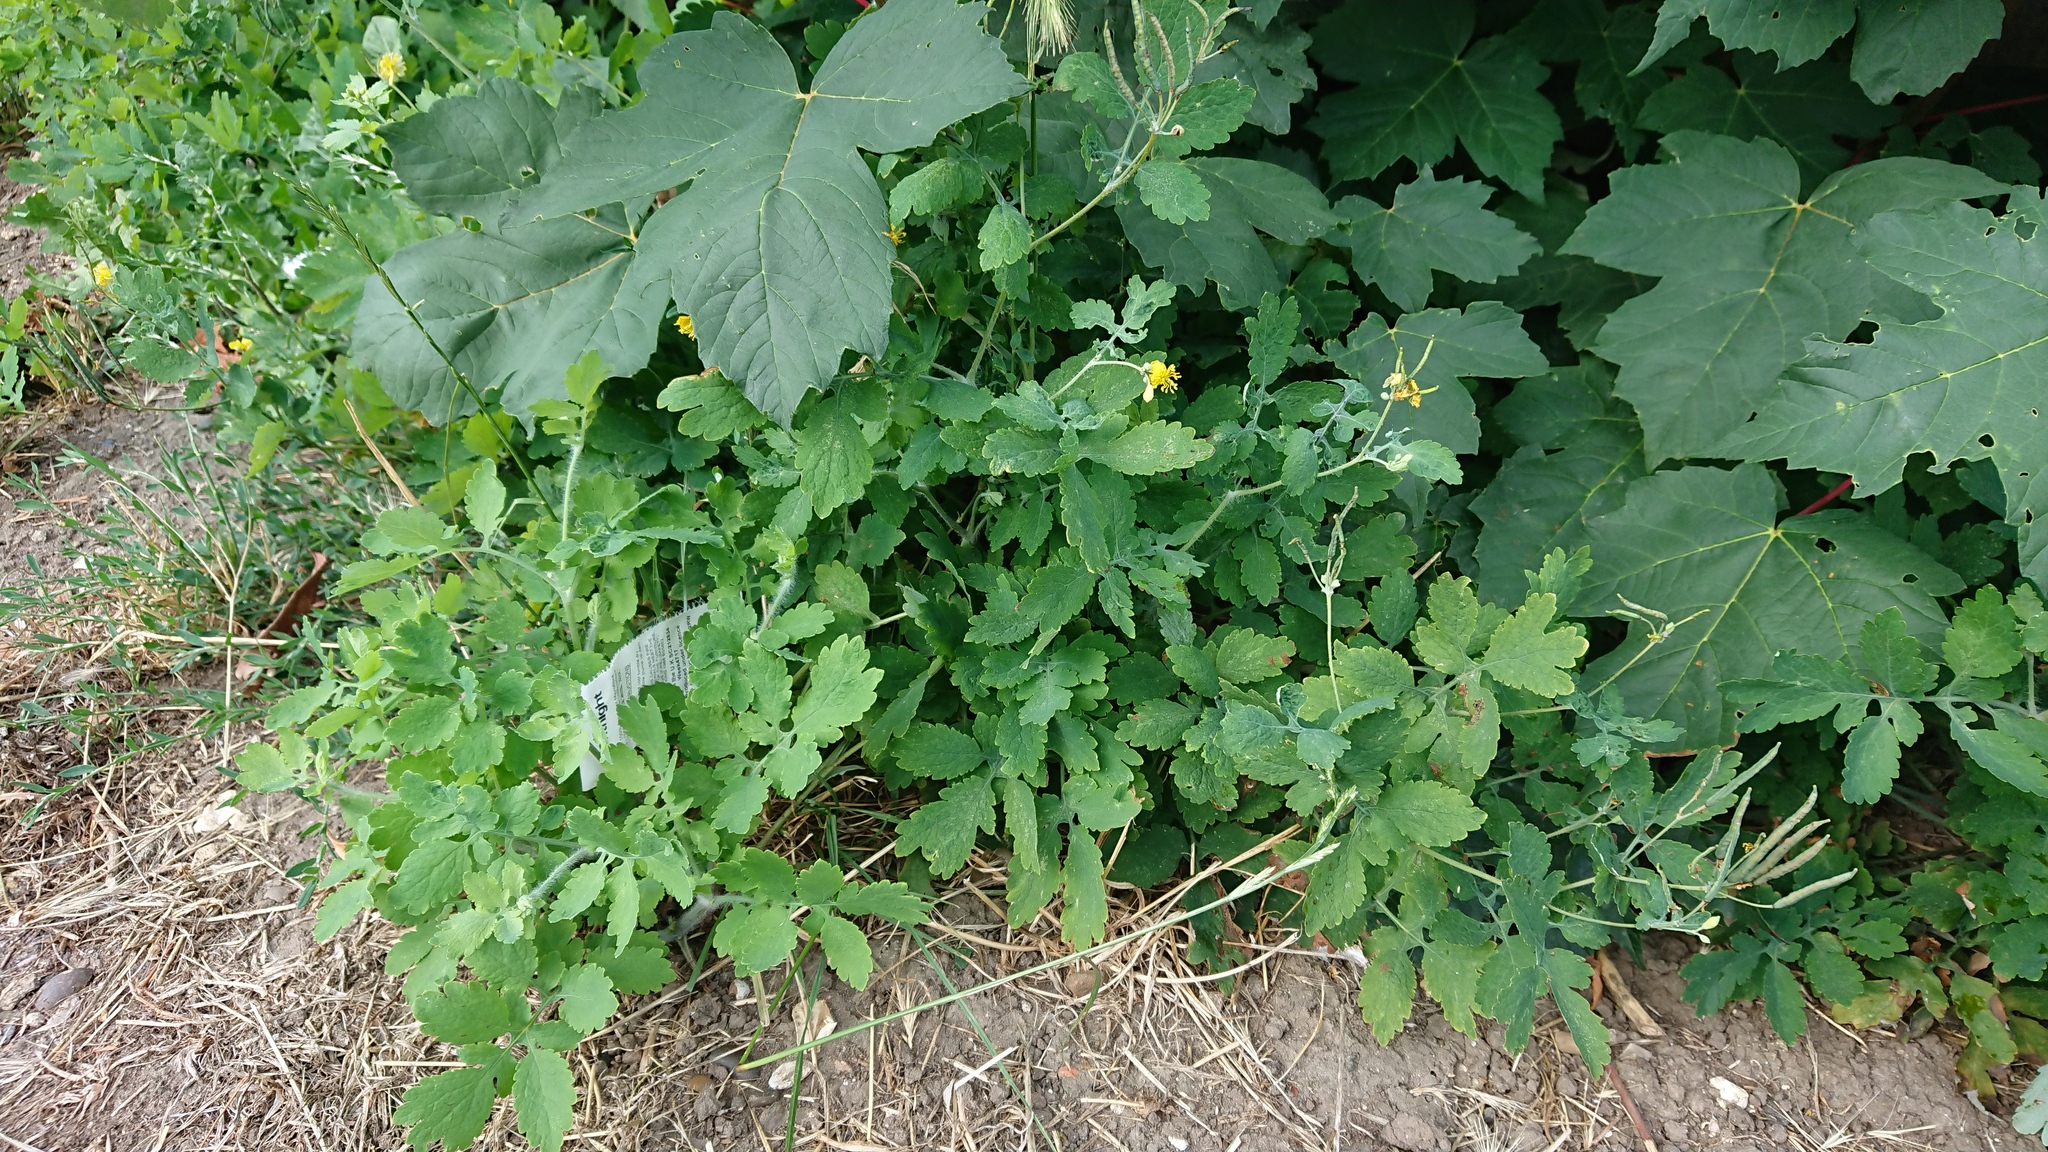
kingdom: Plantae
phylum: Tracheophyta
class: Magnoliopsida
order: Ranunculales
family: Papaveraceae
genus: Chelidonium
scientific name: Chelidonium majus
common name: Greater celandine
